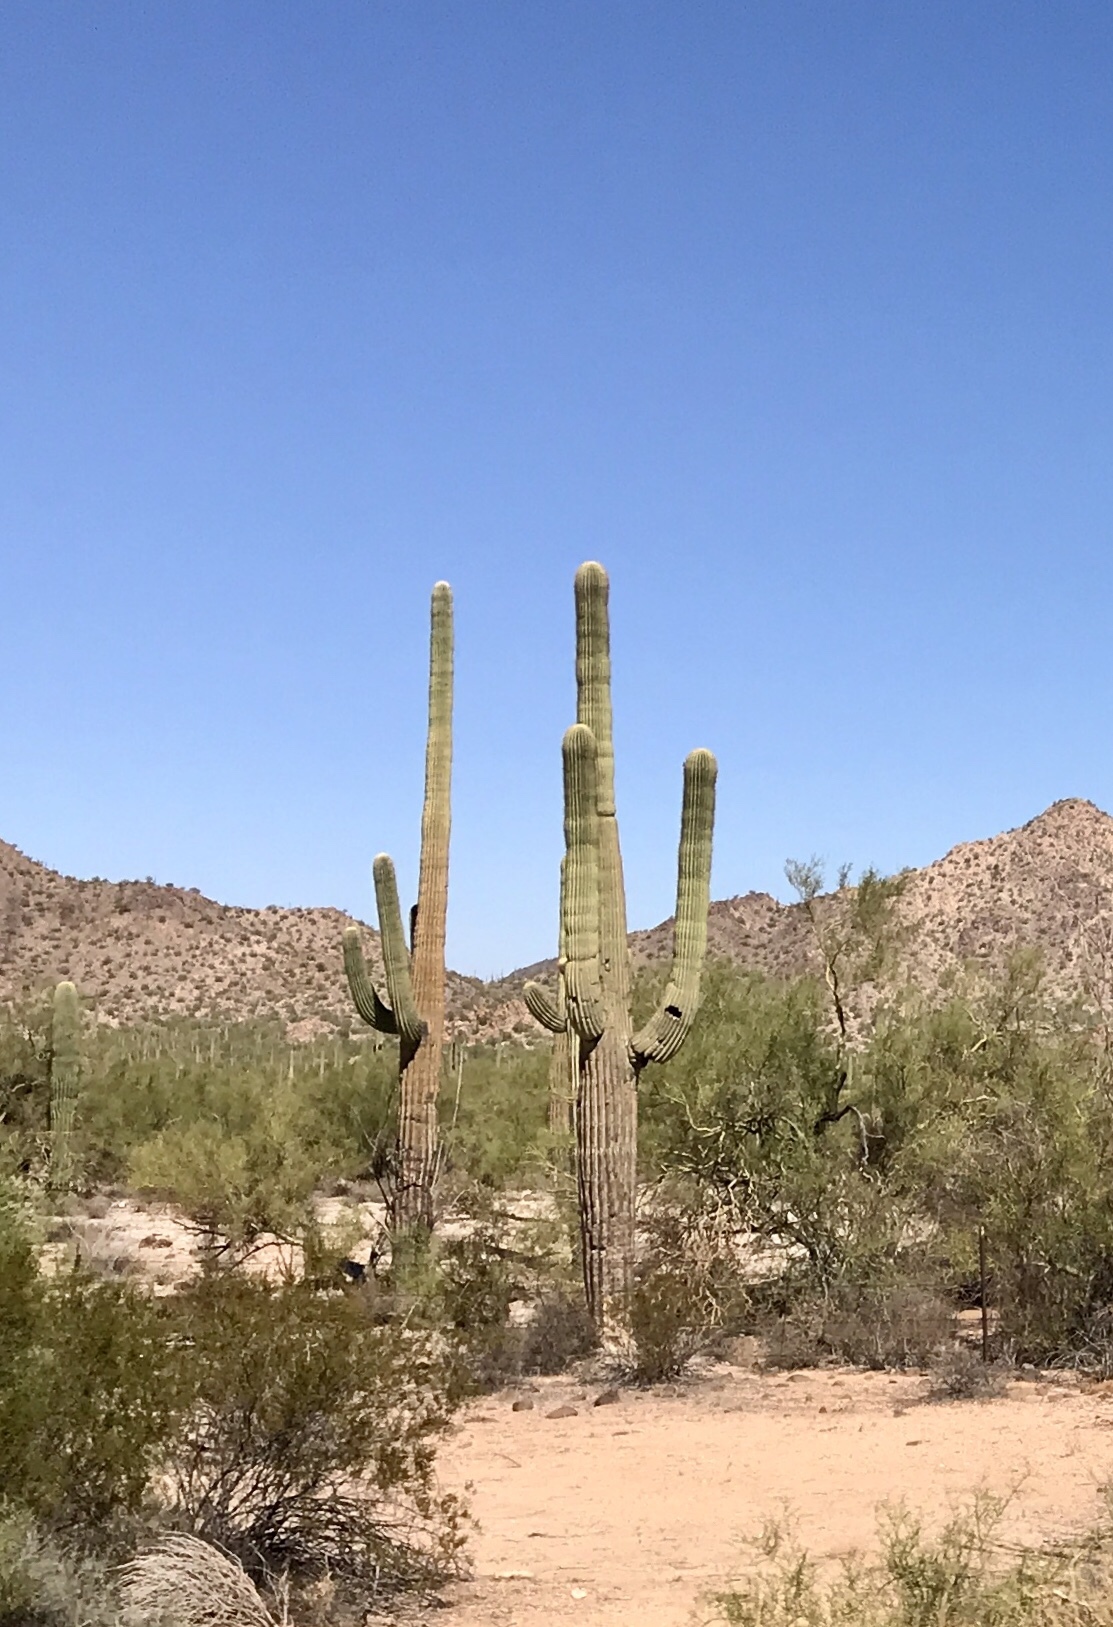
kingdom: Plantae
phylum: Tracheophyta
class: Magnoliopsida
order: Caryophyllales
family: Cactaceae
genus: Carnegiea
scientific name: Carnegiea gigantea
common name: Saguaro
